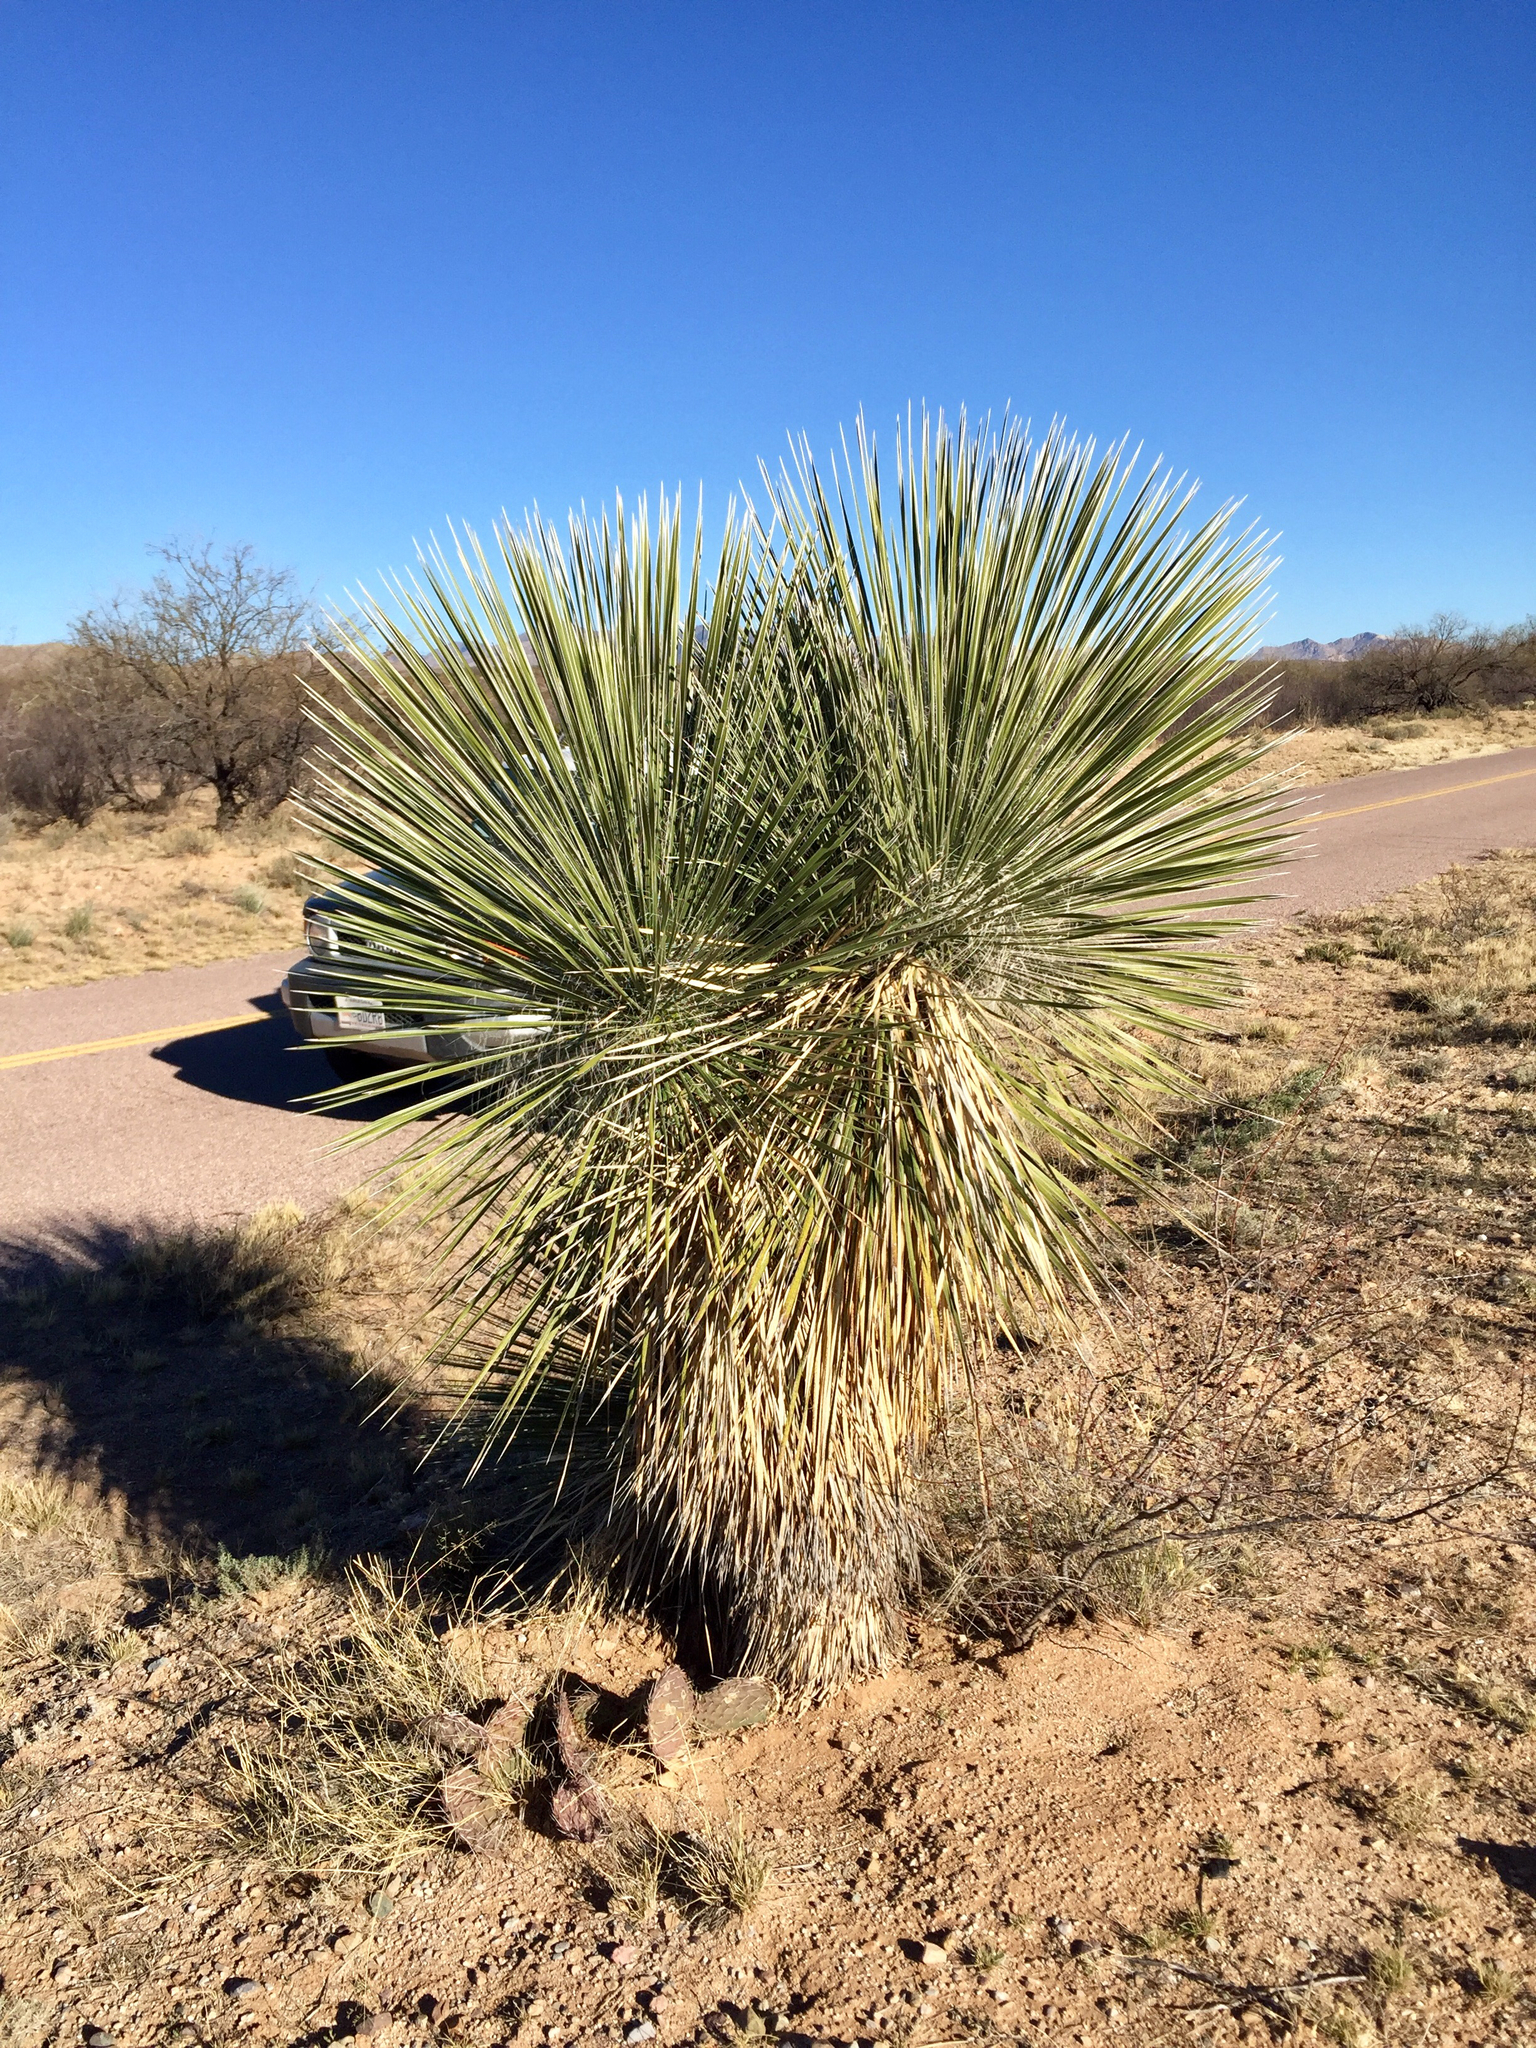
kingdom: Plantae
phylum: Tracheophyta
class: Liliopsida
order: Asparagales
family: Asparagaceae
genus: Yucca
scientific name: Yucca elata
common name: Palmella
